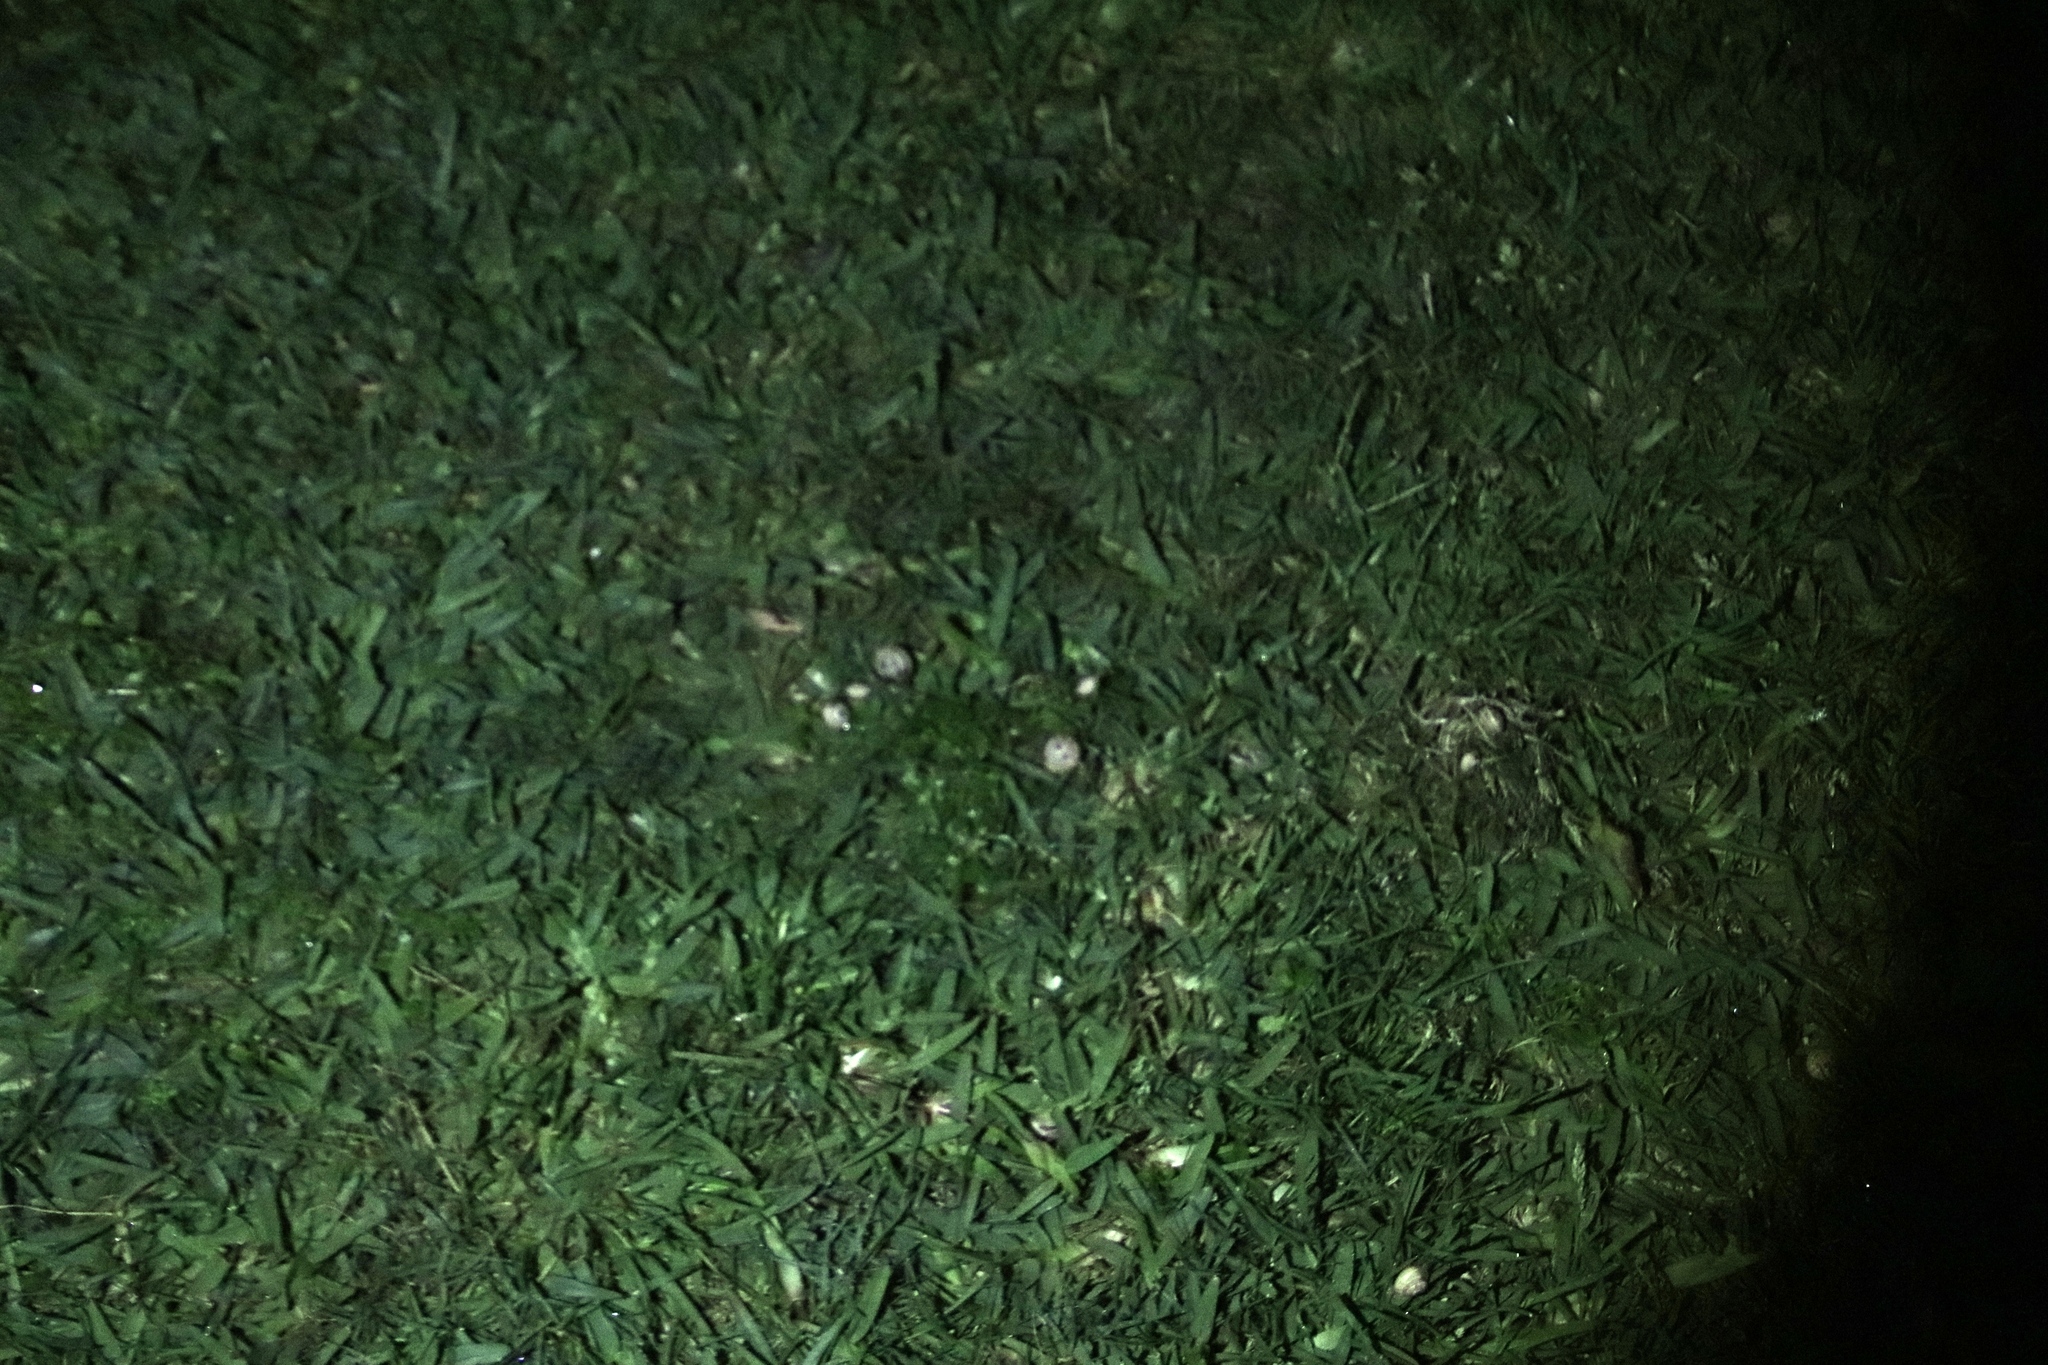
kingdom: Animalia
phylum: Mollusca
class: Gastropoda
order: Stylommatophora
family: Helicidae
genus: Theba
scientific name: Theba pisana
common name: White snail
